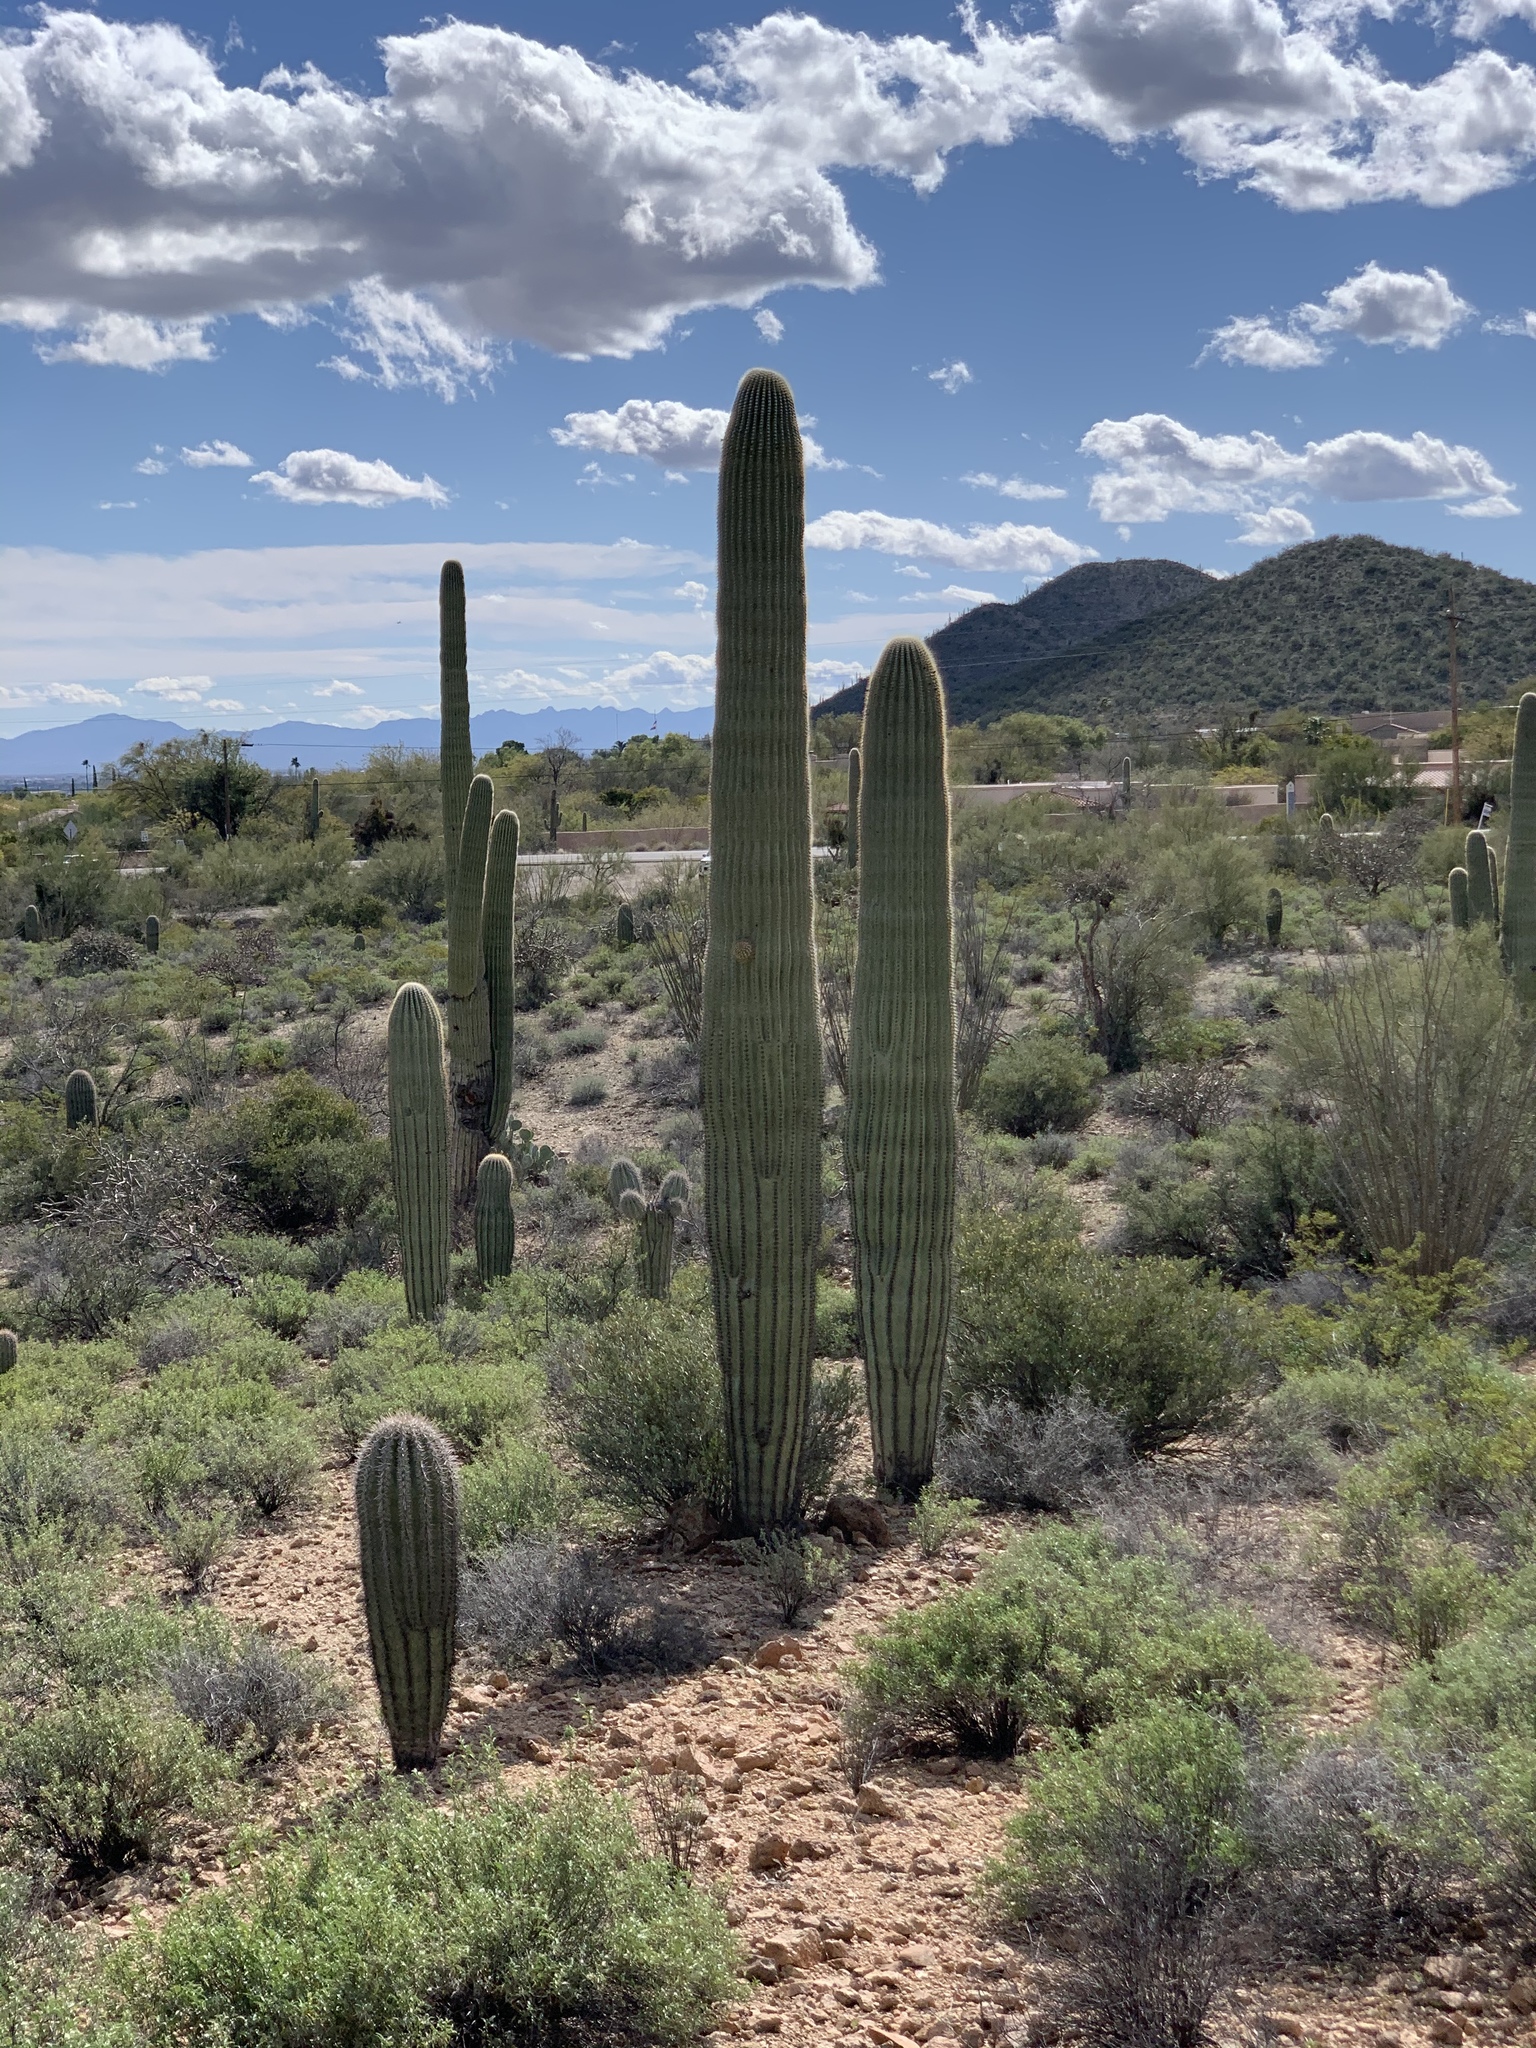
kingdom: Plantae
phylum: Tracheophyta
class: Magnoliopsida
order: Caryophyllales
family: Cactaceae
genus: Carnegiea
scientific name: Carnegiea gigantea
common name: Saguaro
